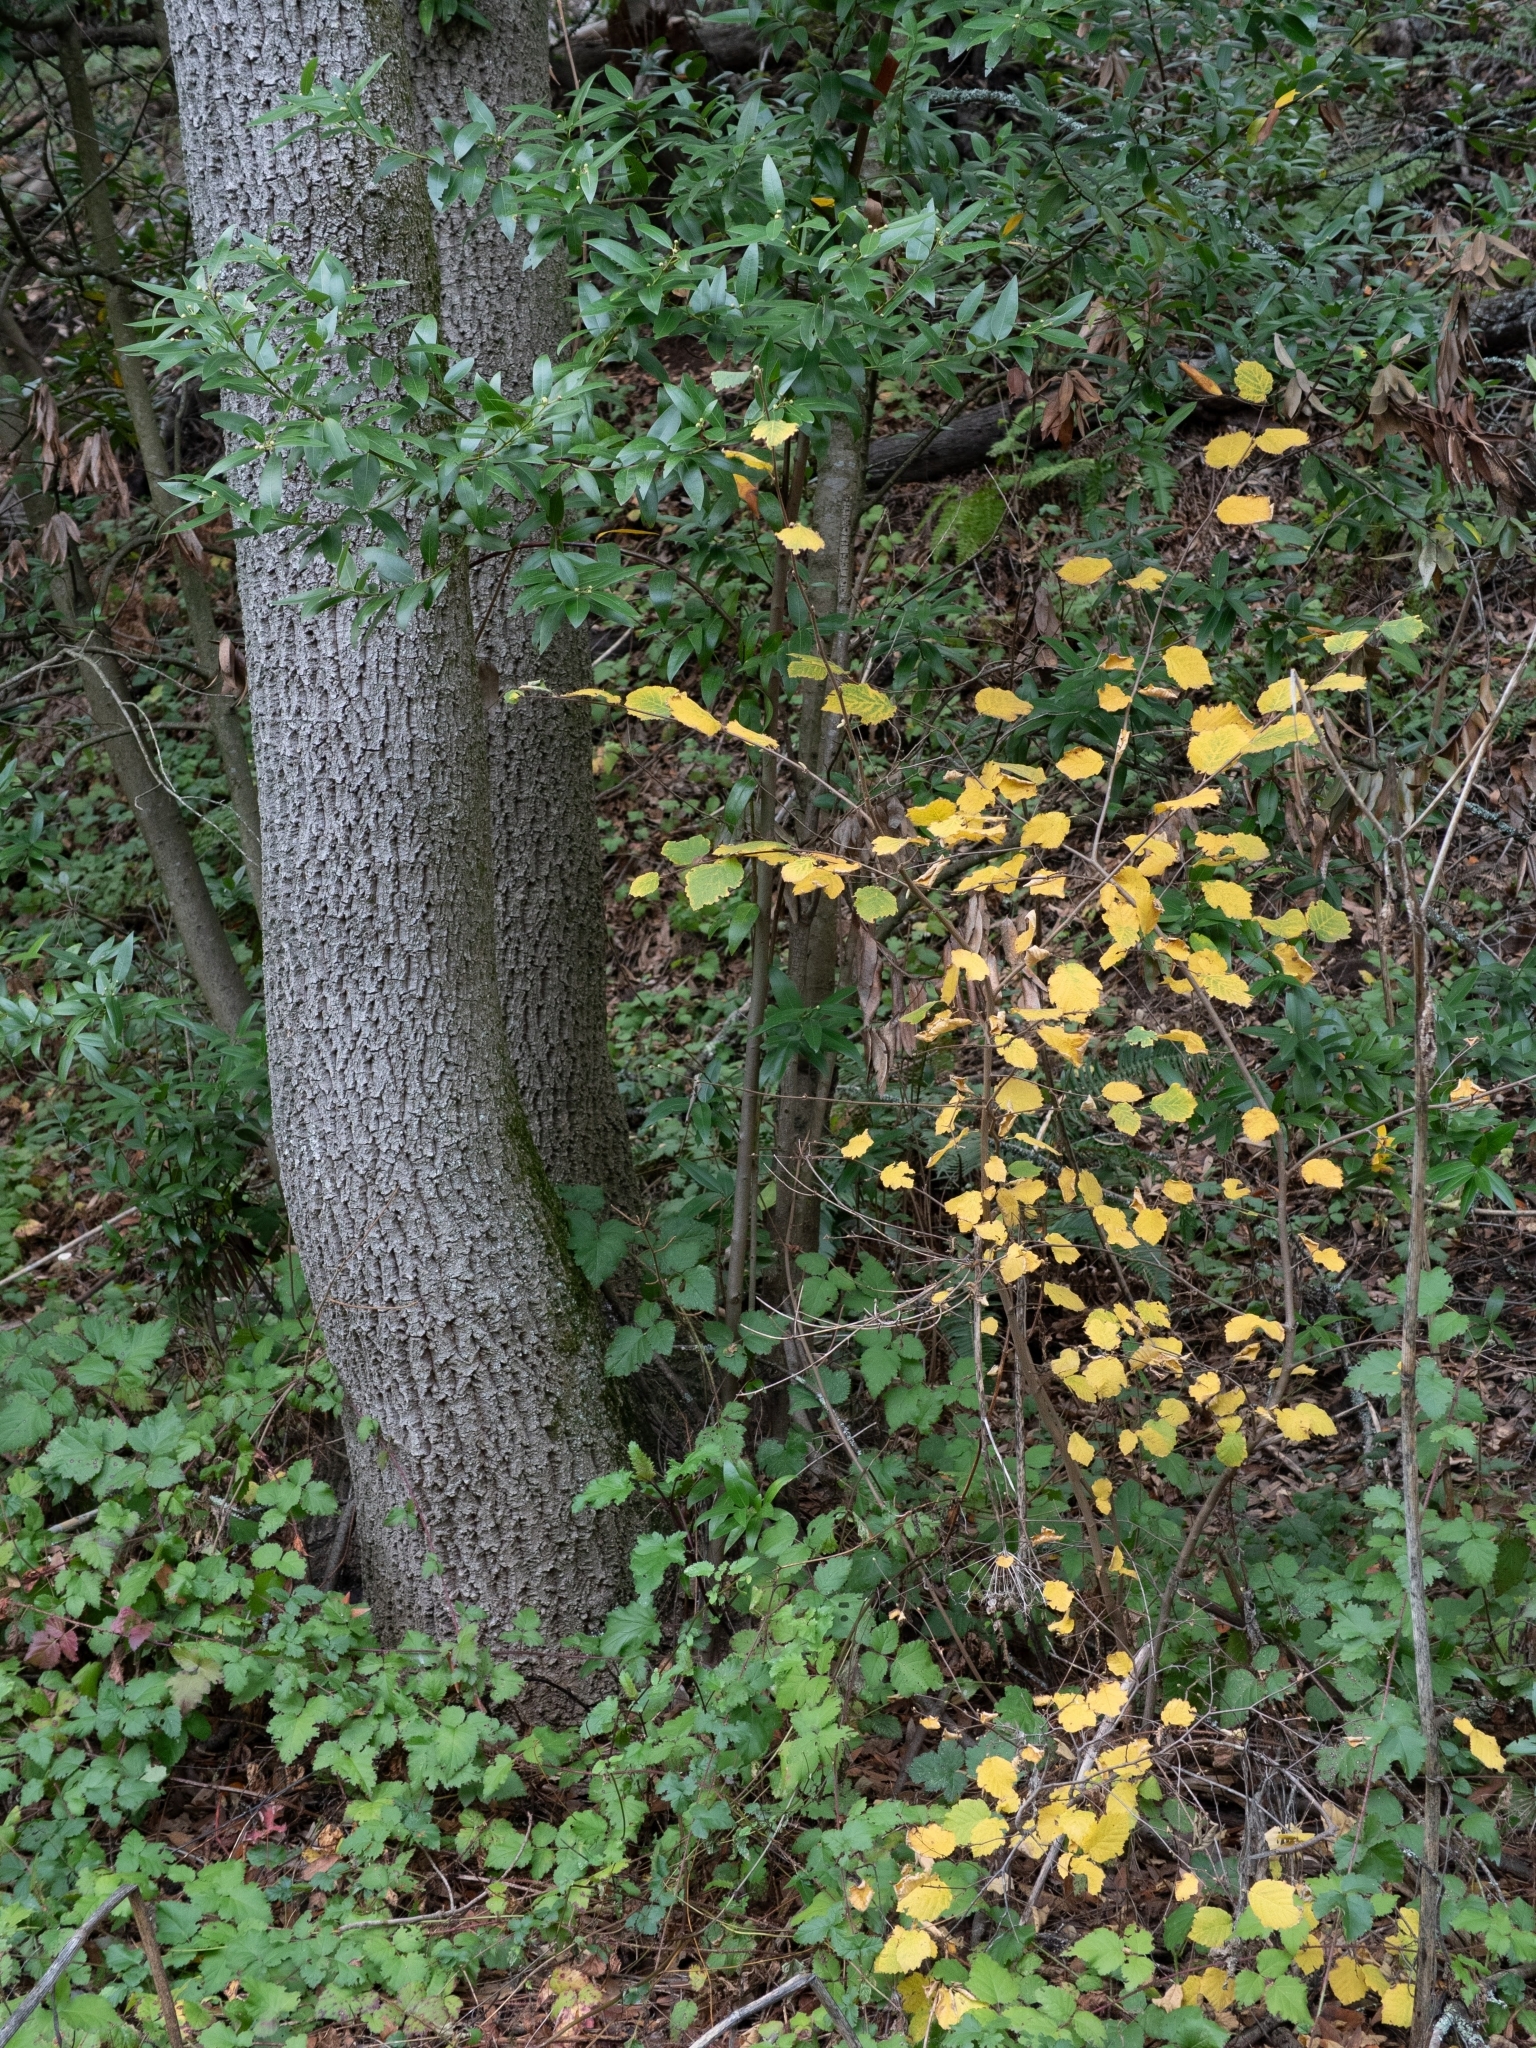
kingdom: Plantae
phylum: Tracheophyta
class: Magnoliopsida
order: Fagales
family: Betulaceae
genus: Corylus
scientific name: Corylus cornuta
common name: Beaked hazel
